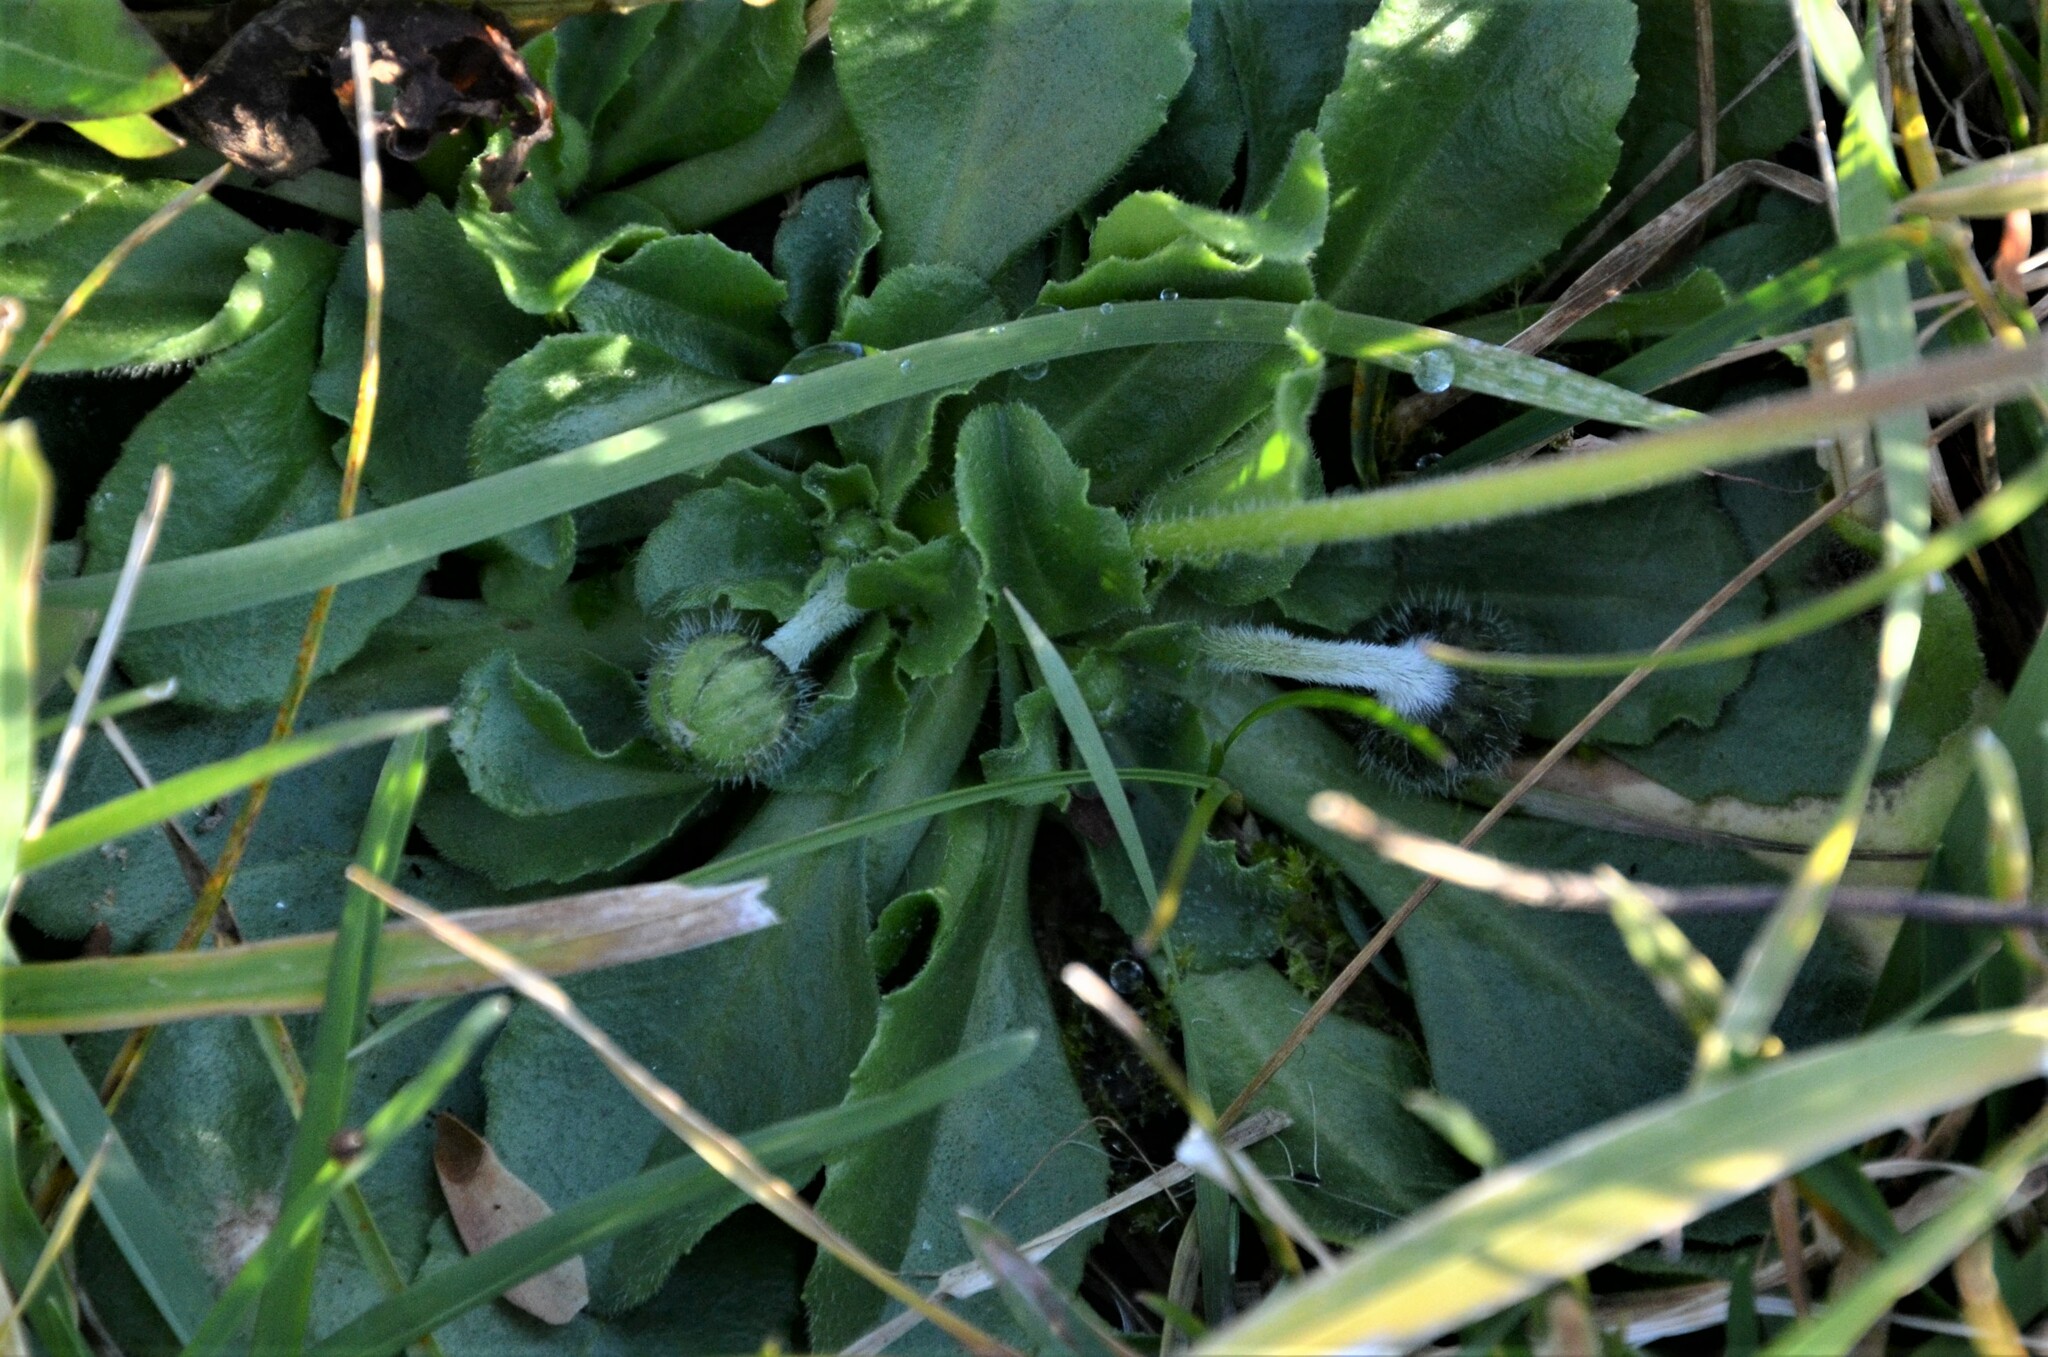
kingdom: Plantae
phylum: Tracheophyta
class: Magnoliopsida
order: Asterales
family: Asteraceae
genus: Bellis
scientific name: Bellis perennis
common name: Lawndaisy
